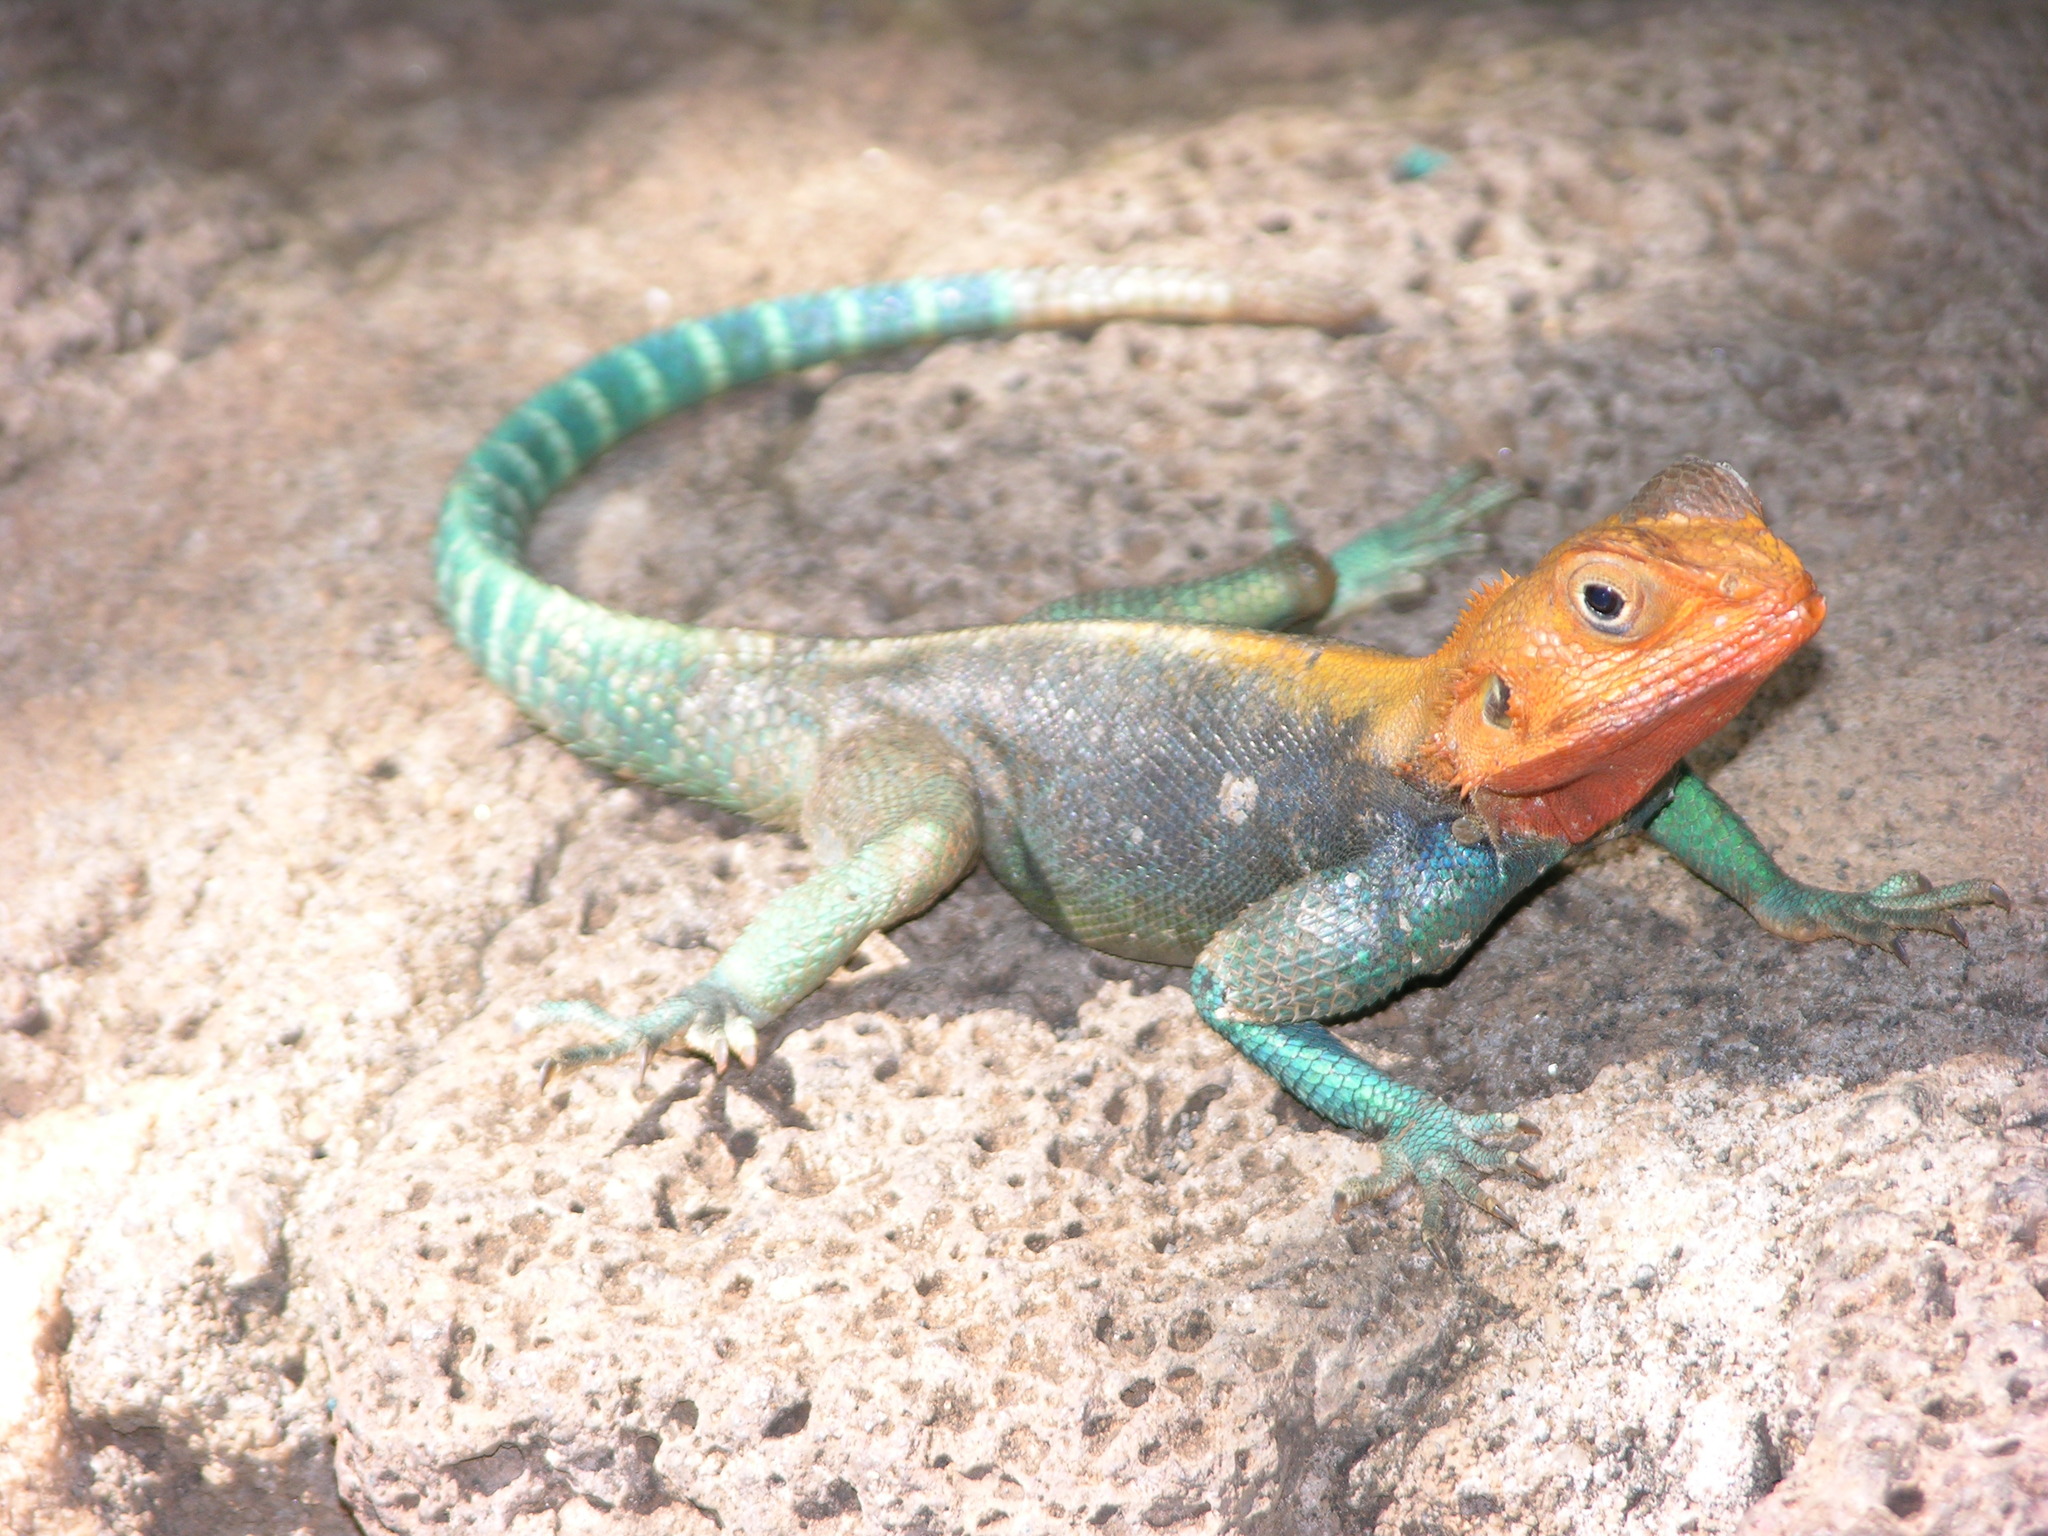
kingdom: Animalia
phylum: Chordata
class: Squamata
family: Agamidae
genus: Agama
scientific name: Agama lionotus
